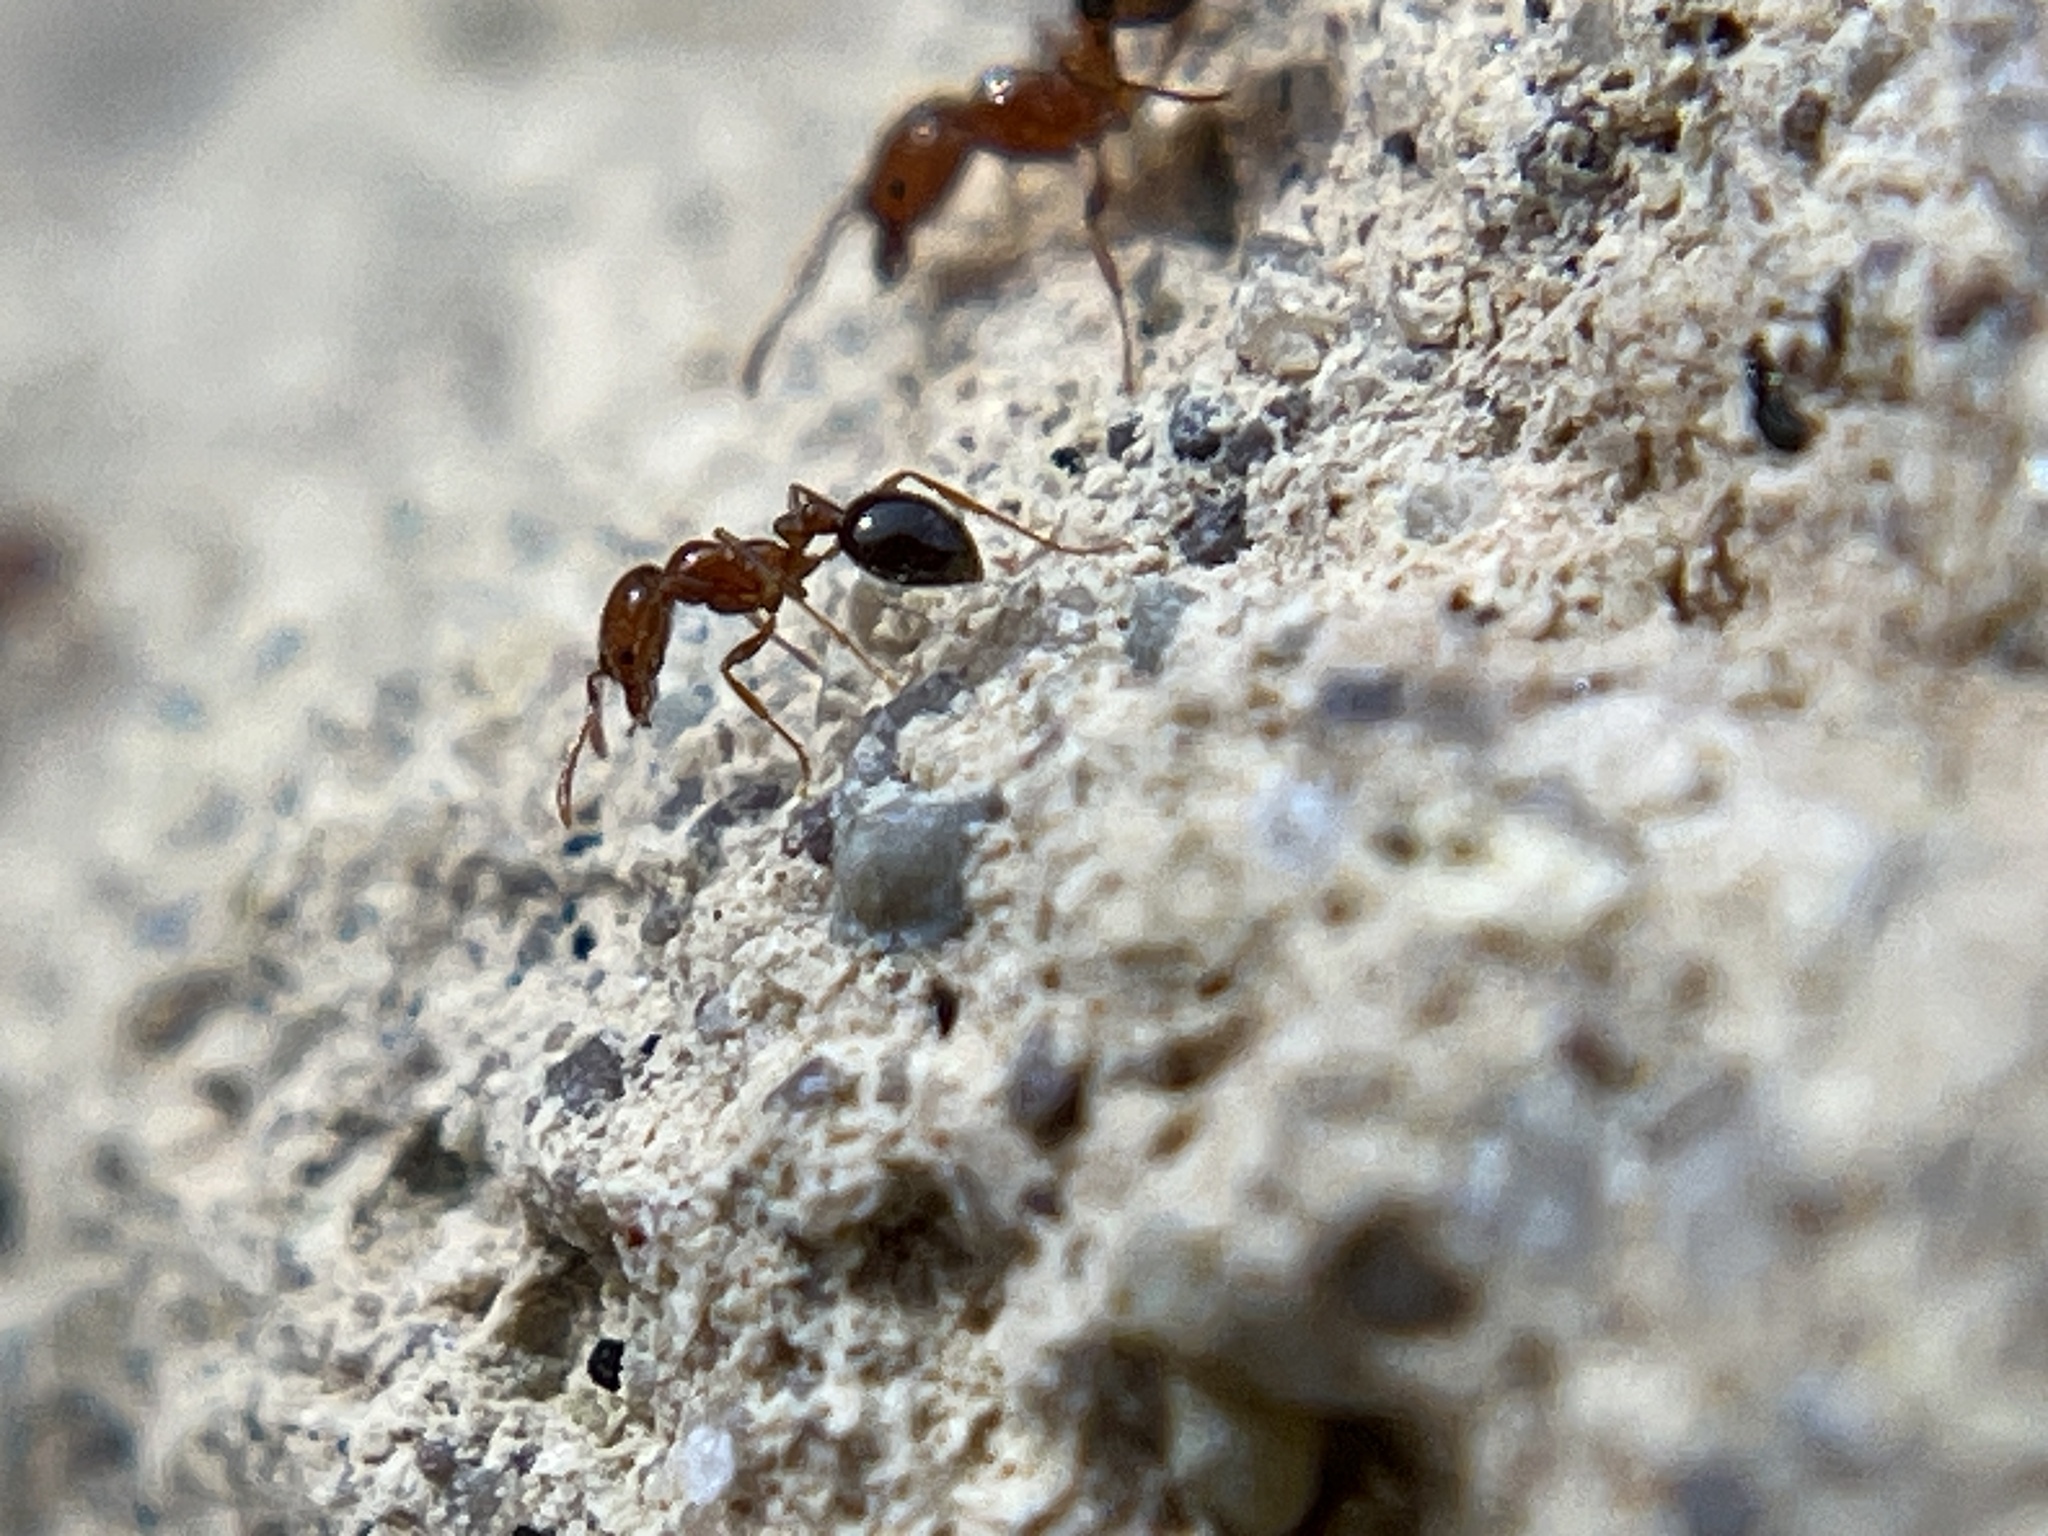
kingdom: Animalia
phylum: Arthropoda
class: Insecta
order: Hymenoptera
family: Formicidae
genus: Solenopsis
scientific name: Solenopsis xyloni
